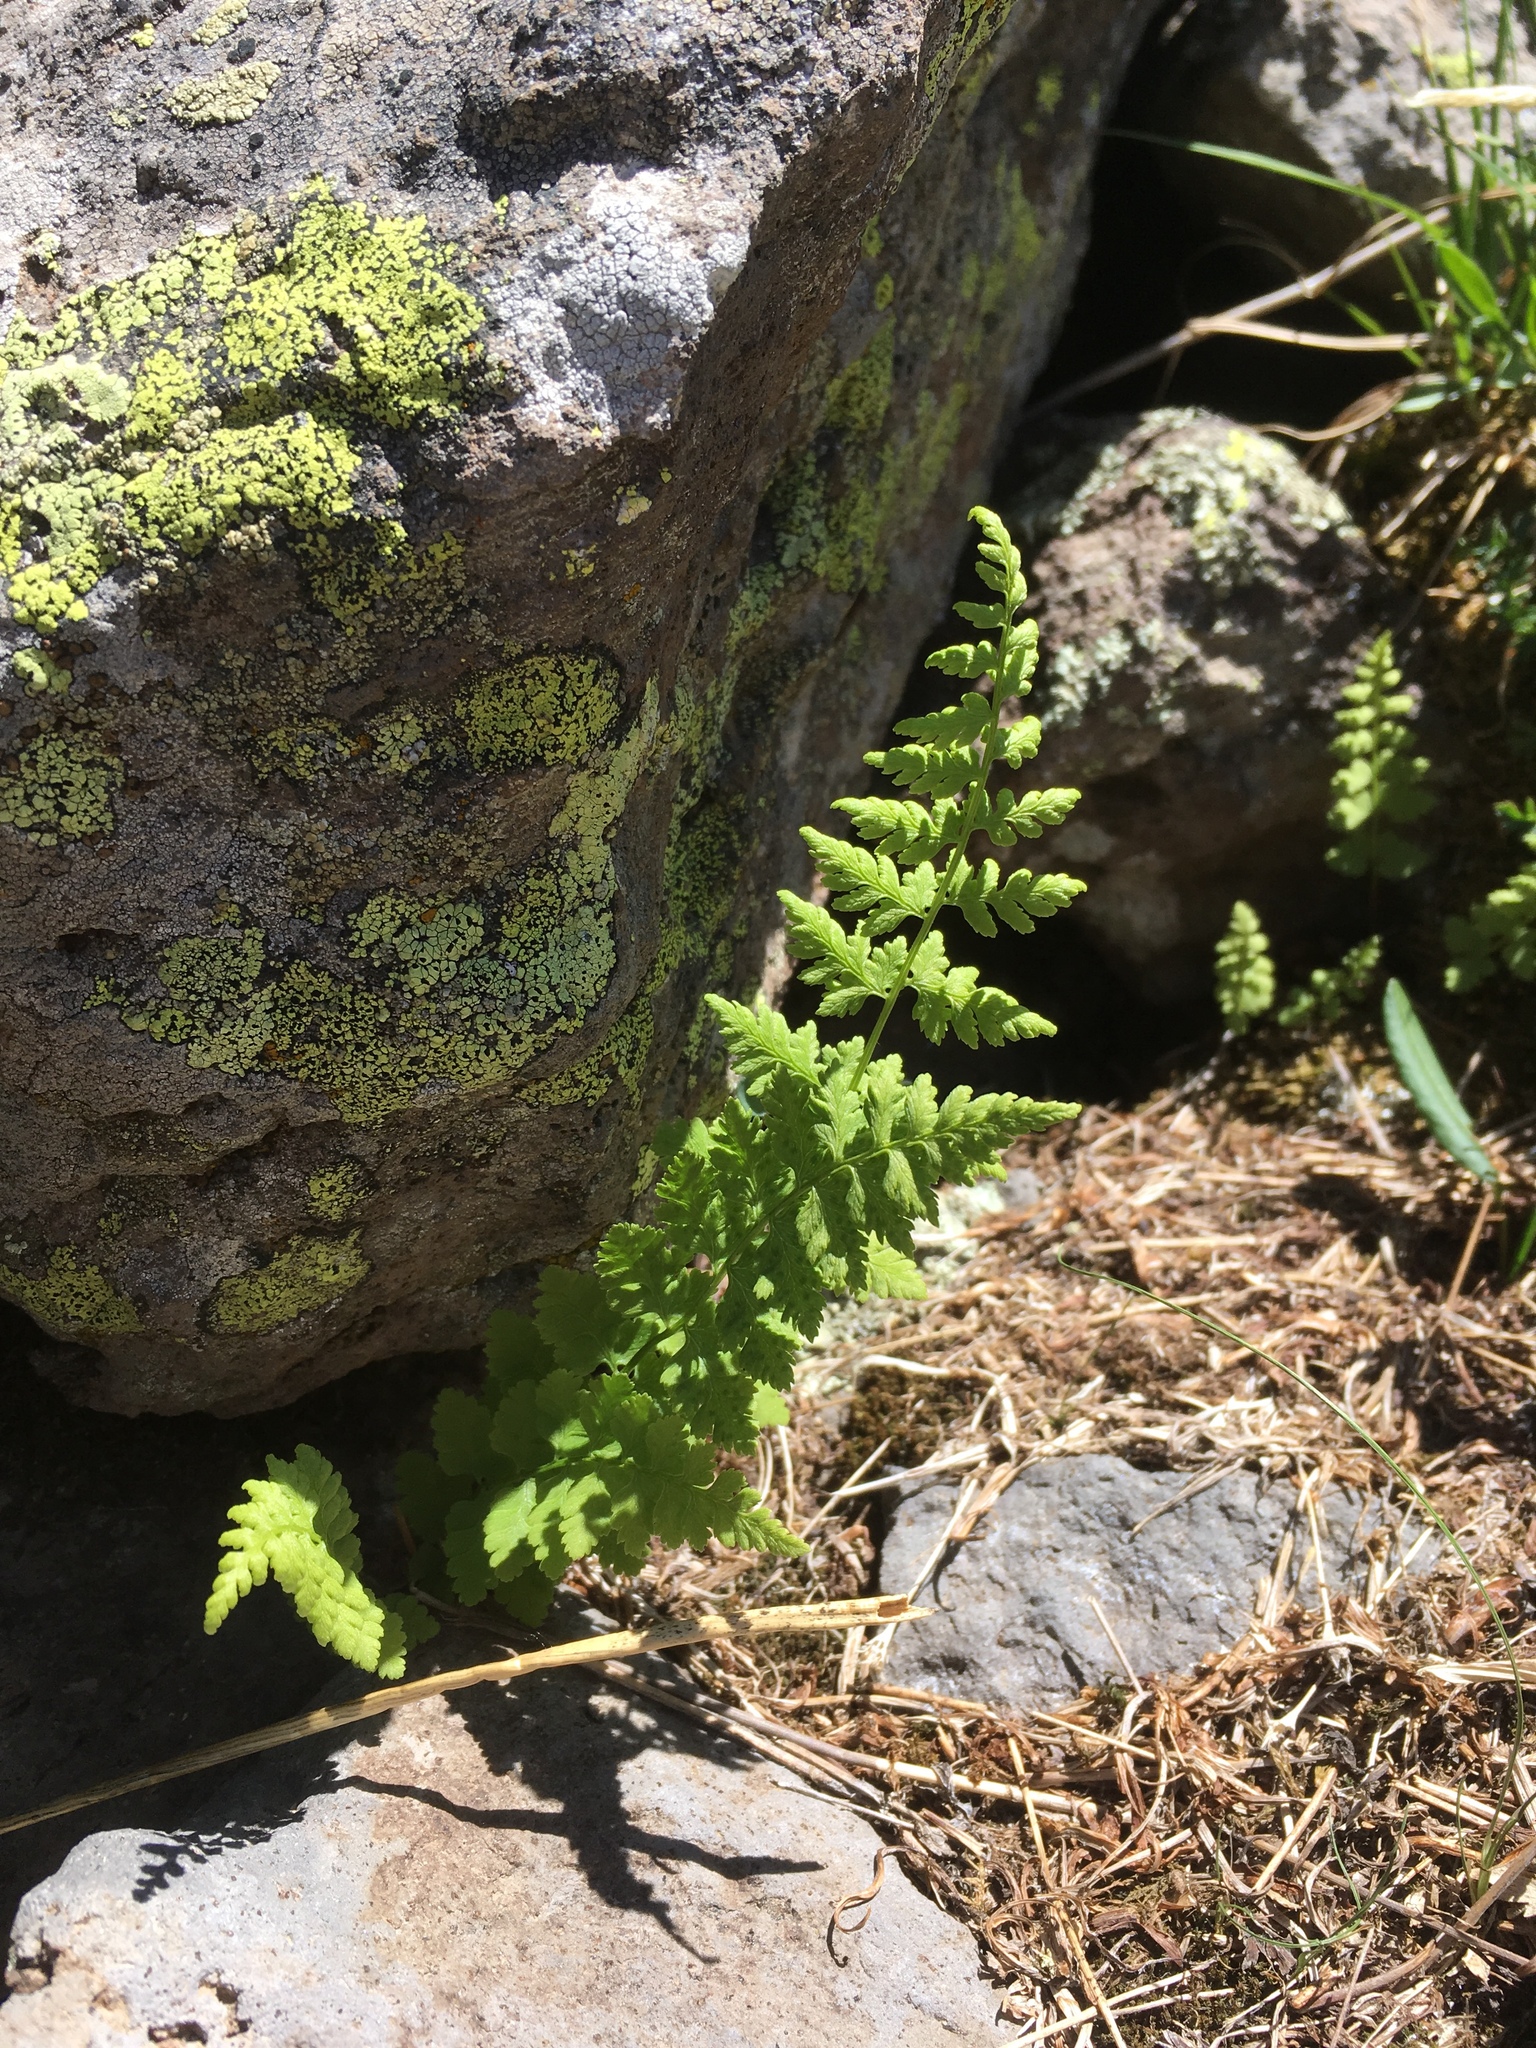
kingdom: Plantae
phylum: Tracheophyta
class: Polypodiopsida
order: Polypodiales
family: Cystopteridaceae
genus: Cystopteris
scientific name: Cystopteris fragilis
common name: Brittle bladder fern
